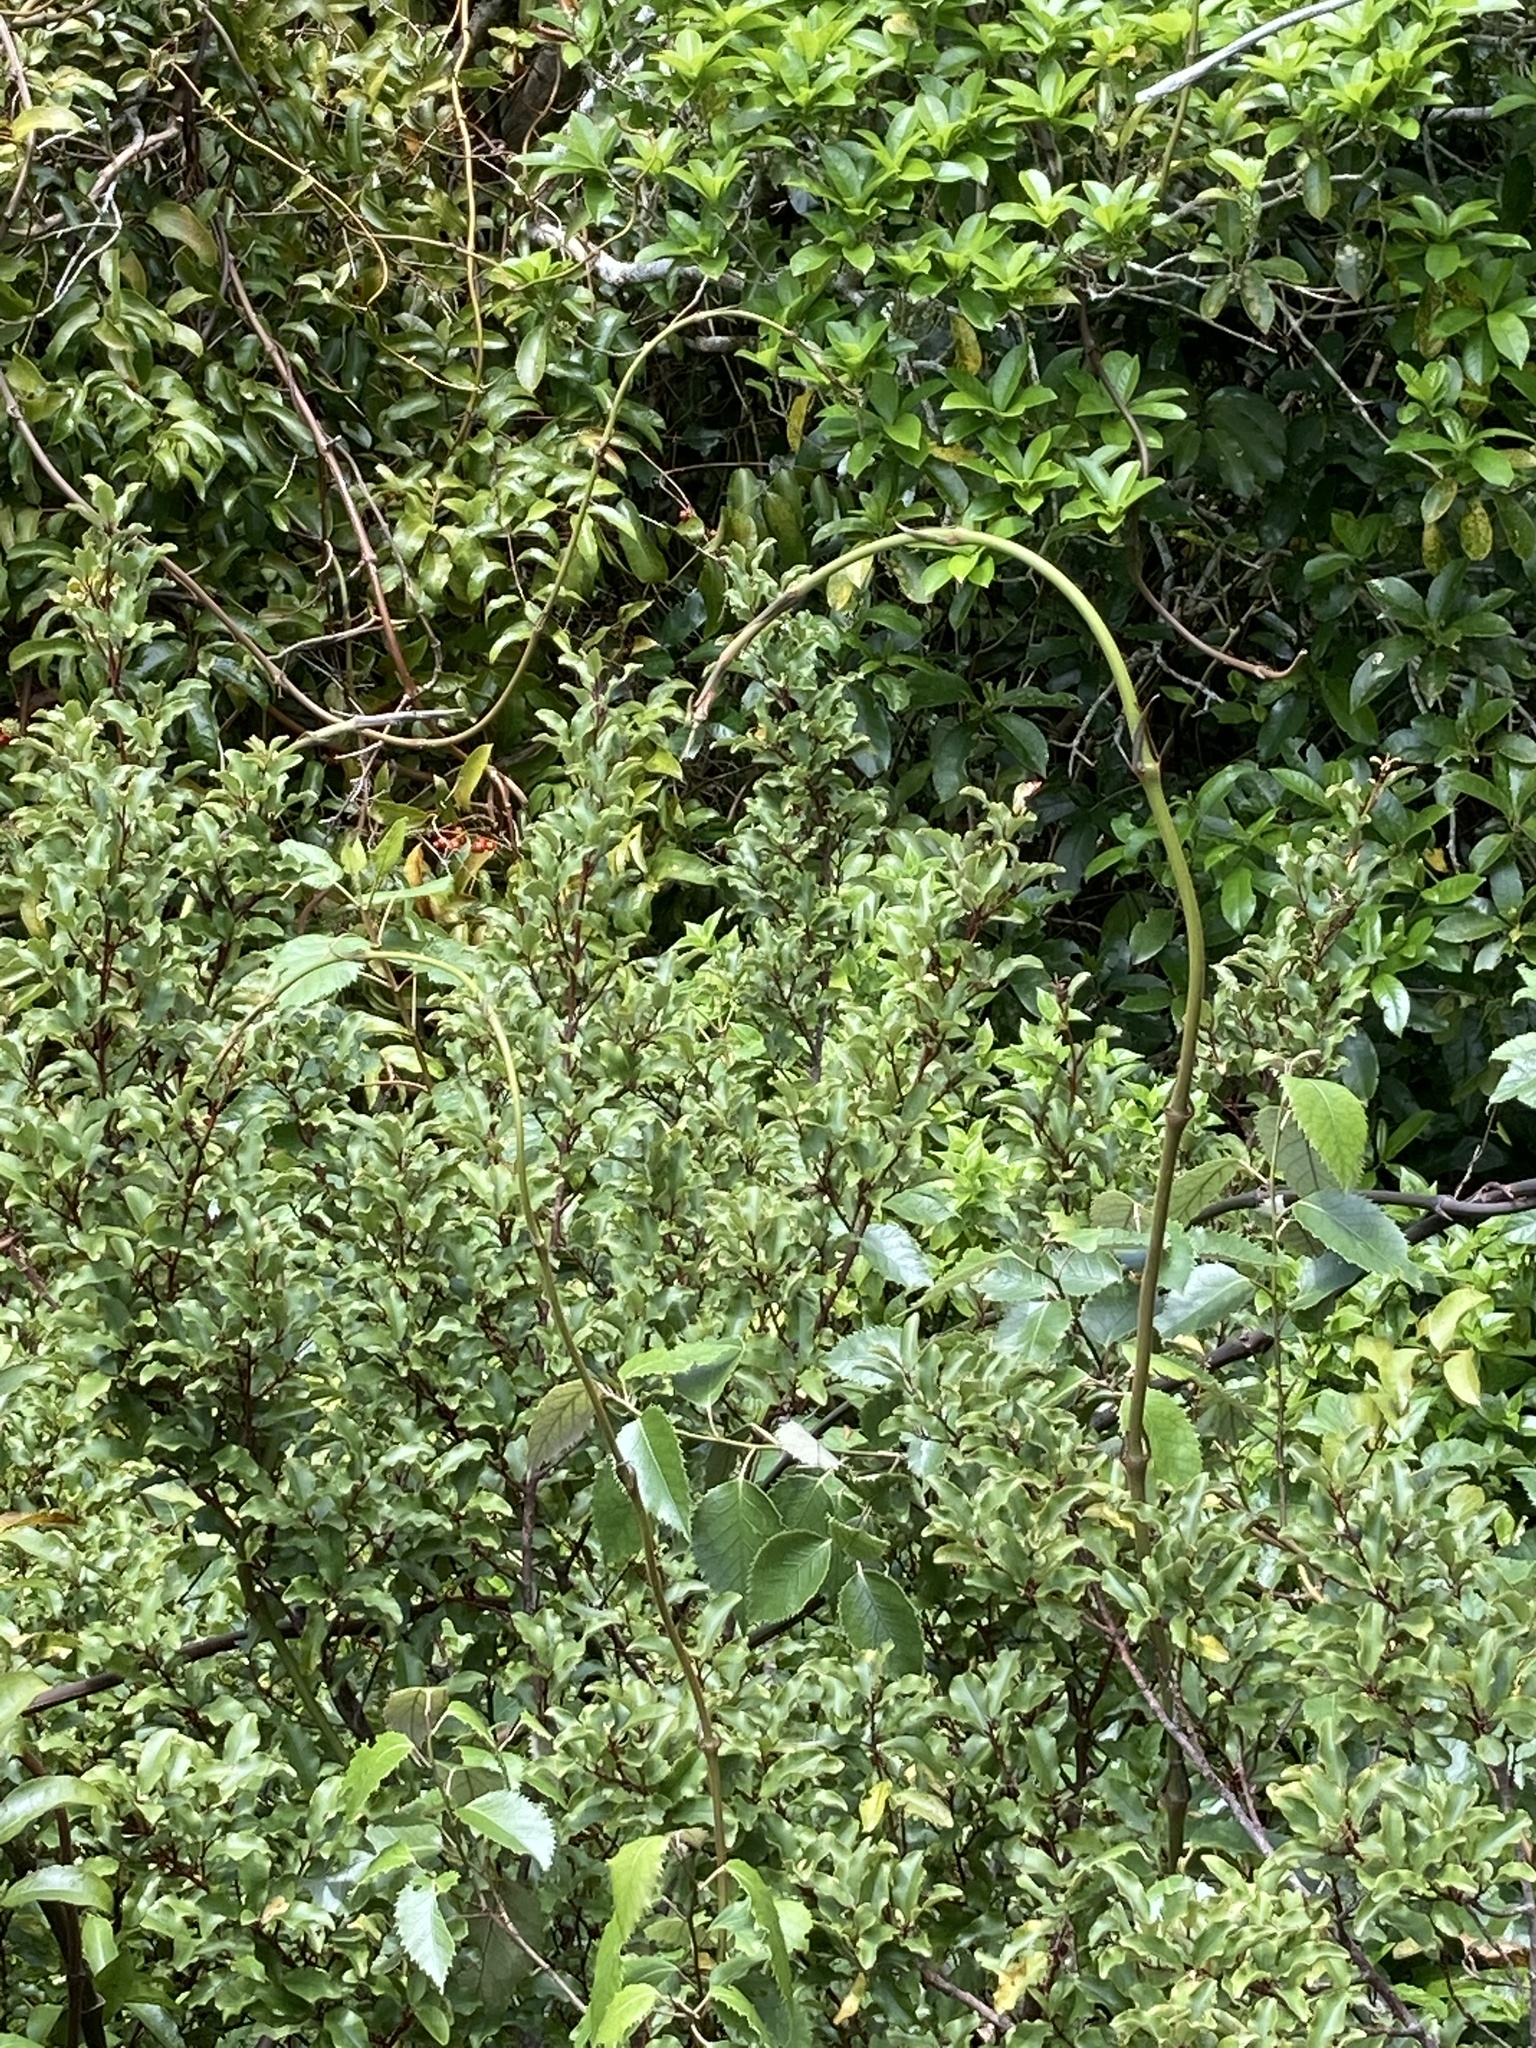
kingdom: Plantae
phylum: Tracheophyta
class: Liliopsida
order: Liliales
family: Ripogonaceae
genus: Ripogonum
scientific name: Ripogonum scandens
